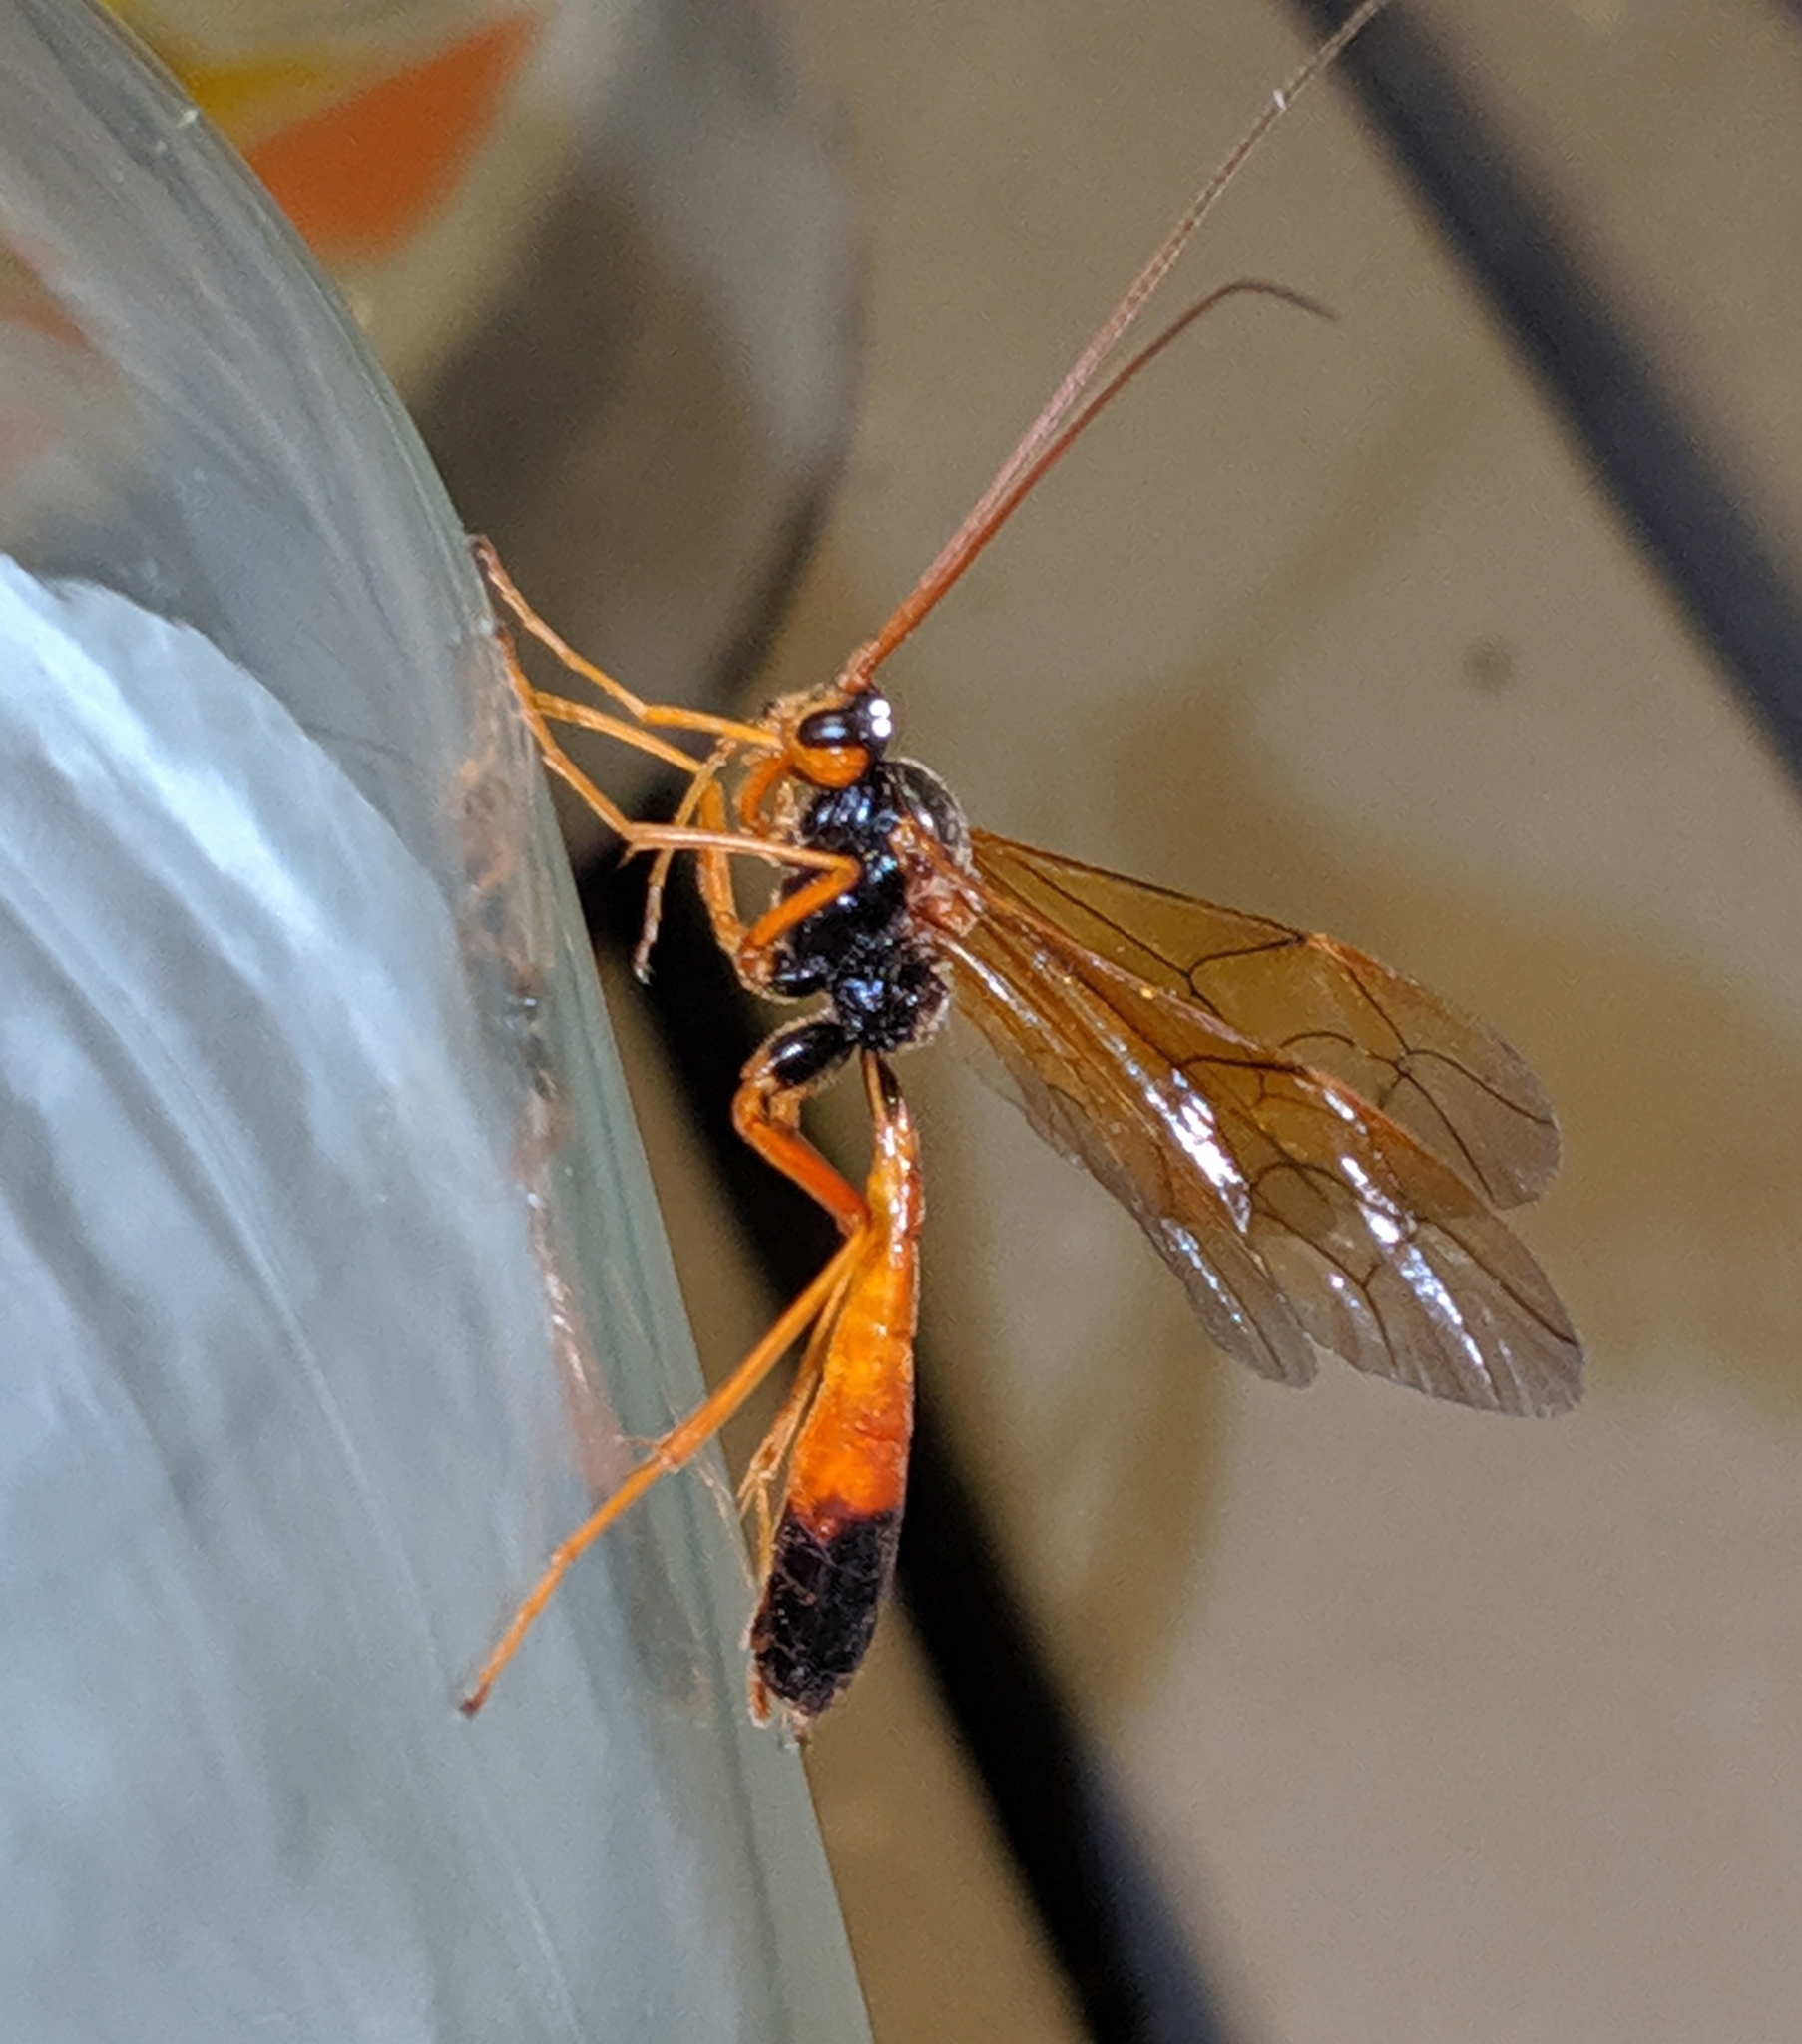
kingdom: Animalia
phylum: Arthropoda
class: Insecta
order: Hymenoptera
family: Ichneumonidae
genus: Opheltes
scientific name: Opheltes glaucopterus
